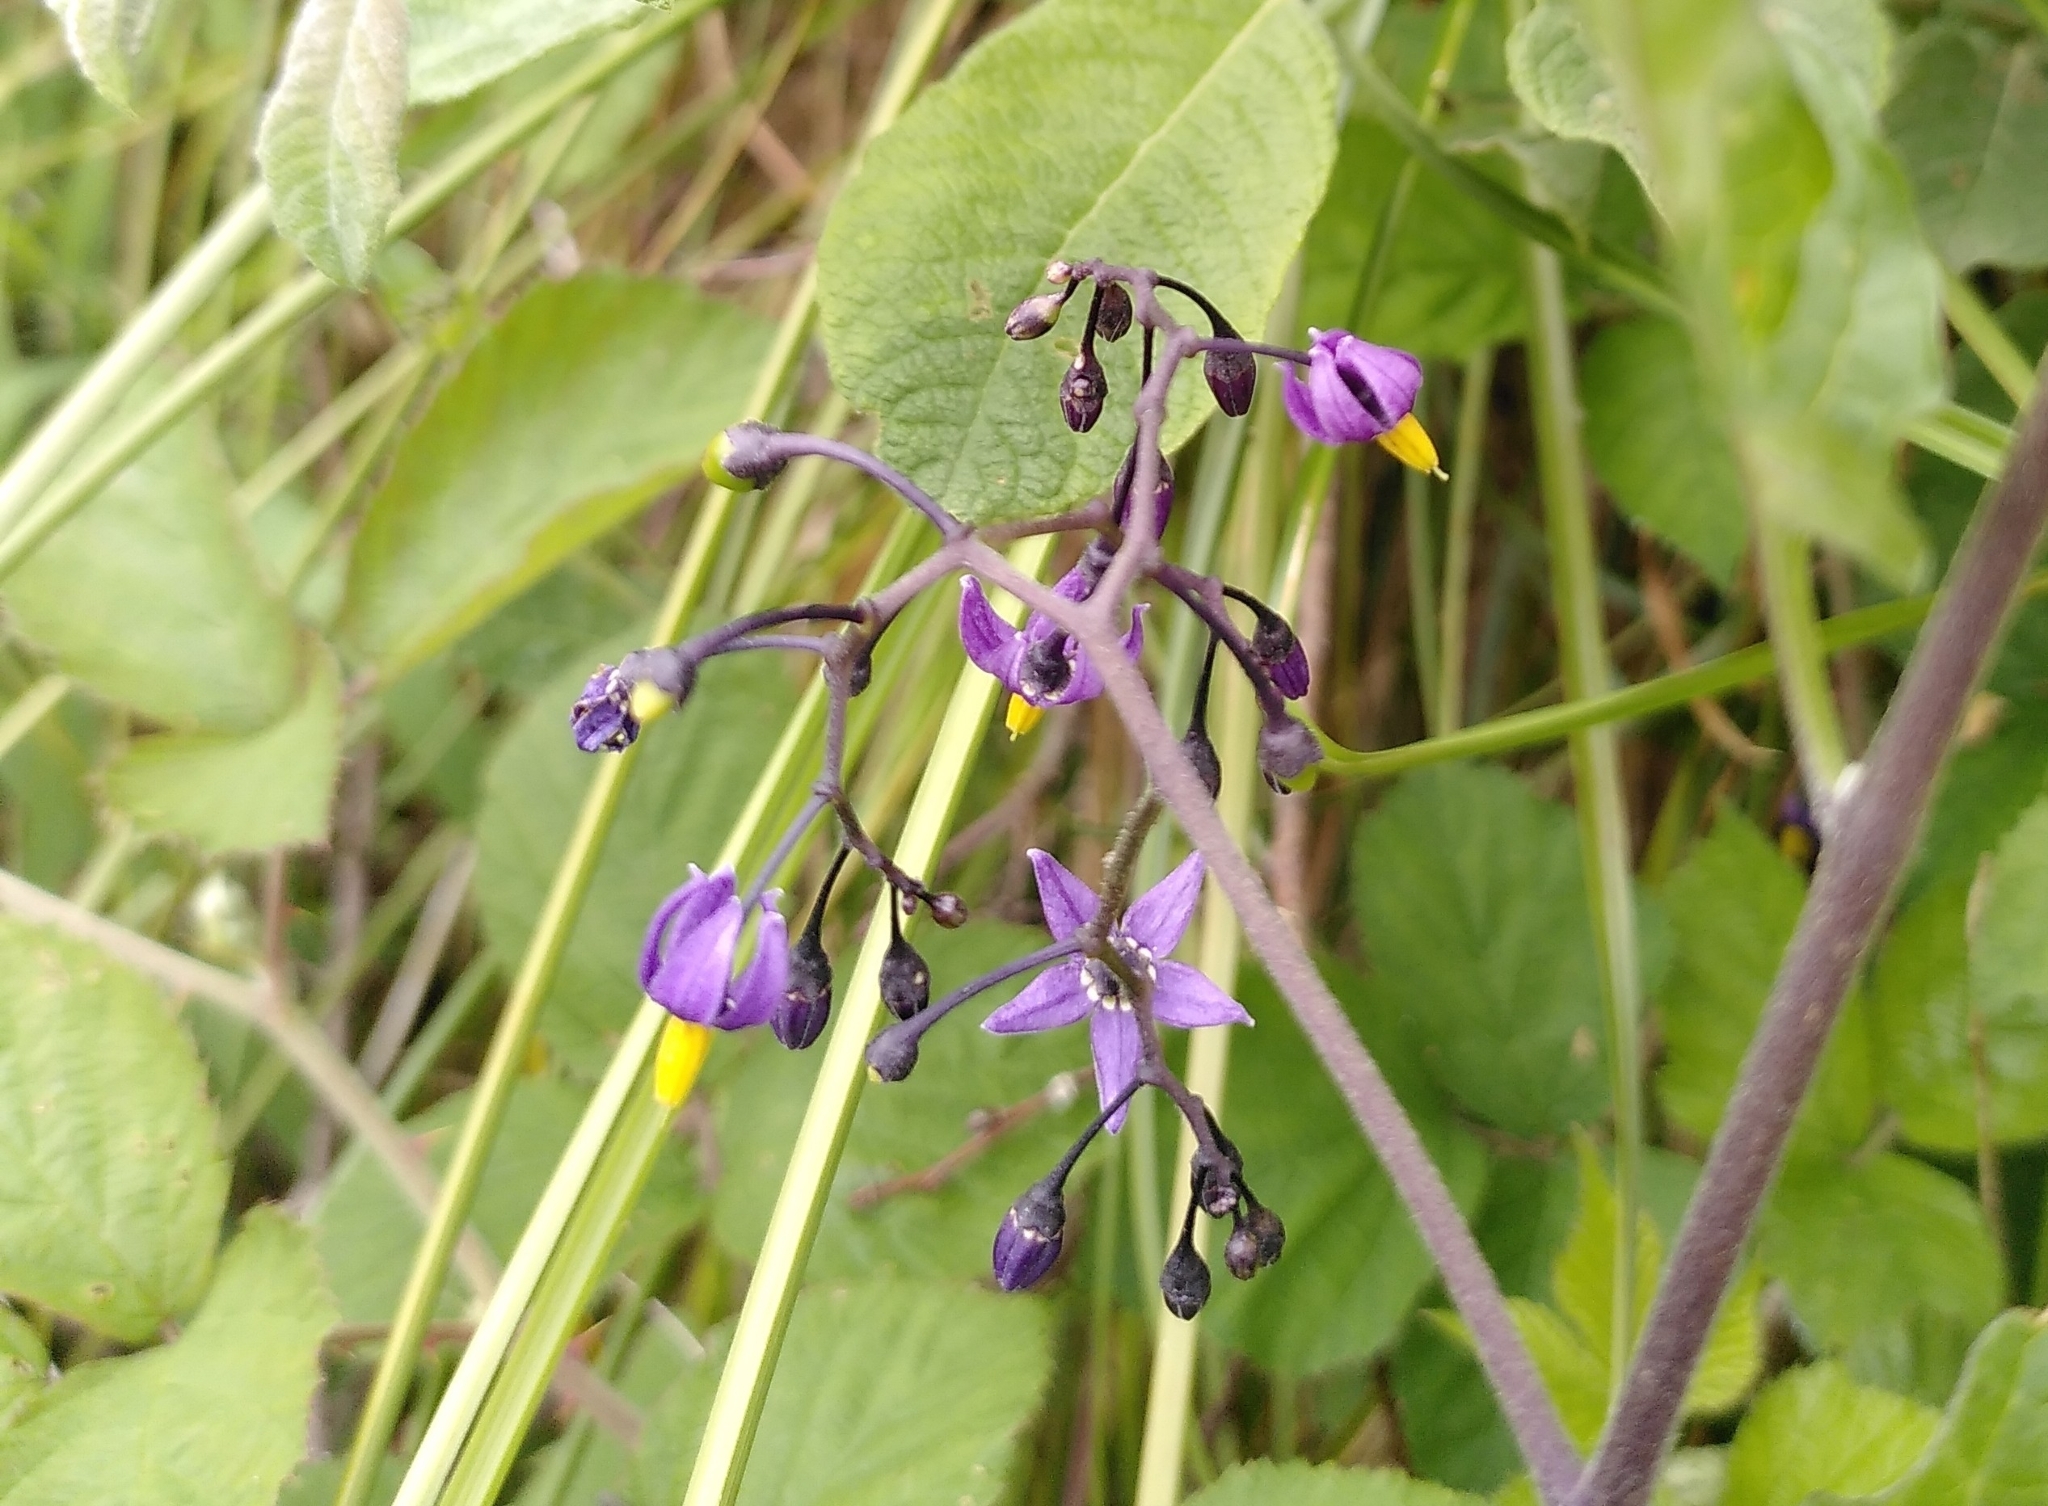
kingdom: Plantae
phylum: Tracheophyta
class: Magnoliopsida
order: Solanales
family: Solanaceae
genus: Solanum
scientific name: Solanum dulcamara
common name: Climbing nightshade
